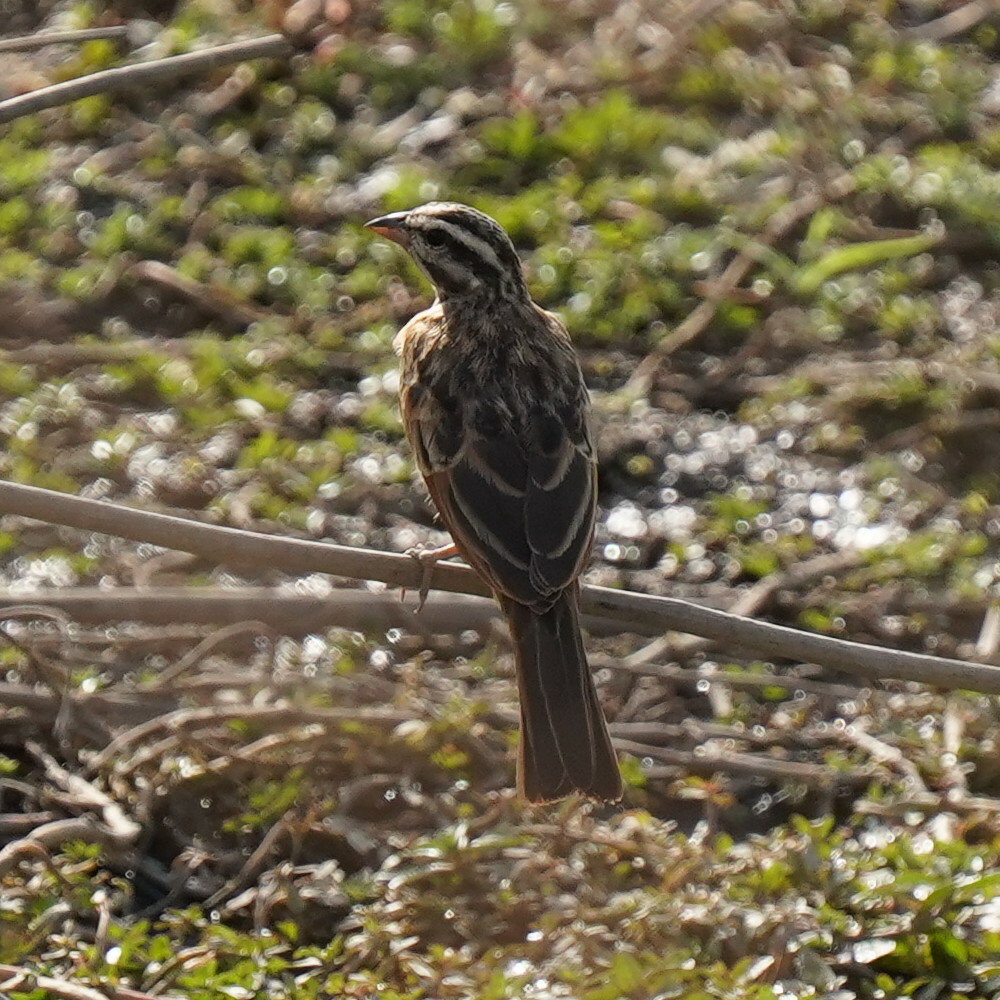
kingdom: Animalia
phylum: Chordata
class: Aves
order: Passeriformes
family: Emberizidae
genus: Emberiza
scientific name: Emberiza goslingi
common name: Gosling's bunting
